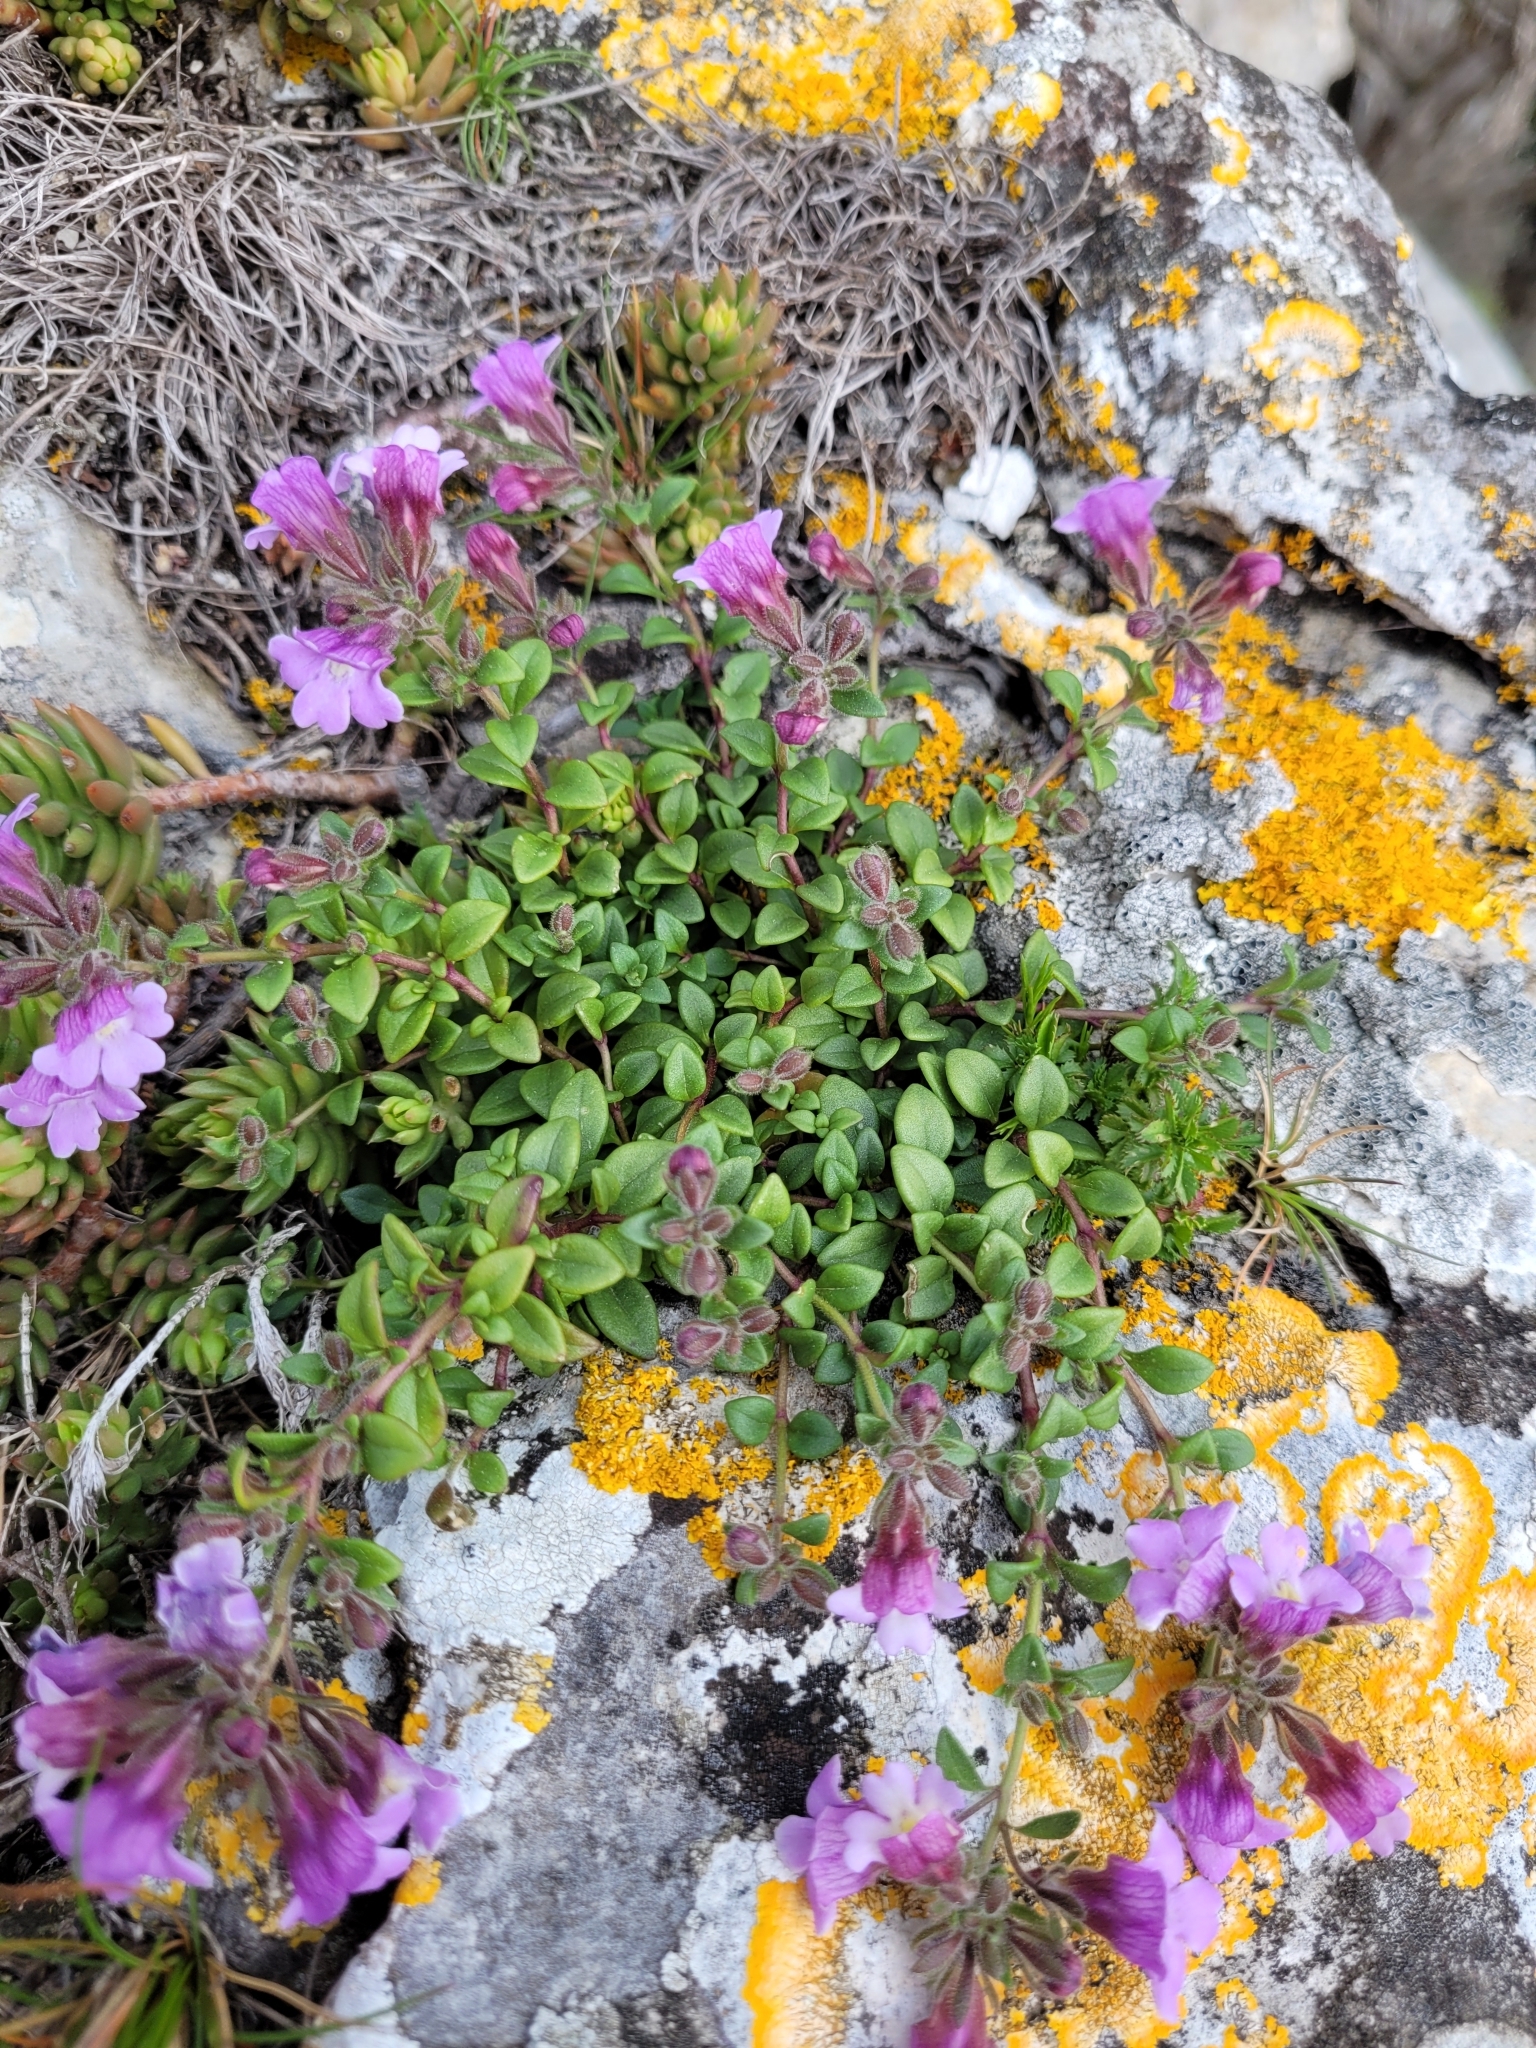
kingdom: Plantae
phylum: Tracheophyta
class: Magnoliopsida
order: Lamiales
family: Plantaginaceae
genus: Chaenorhinum
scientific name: Chaenorhinum origanifolium
